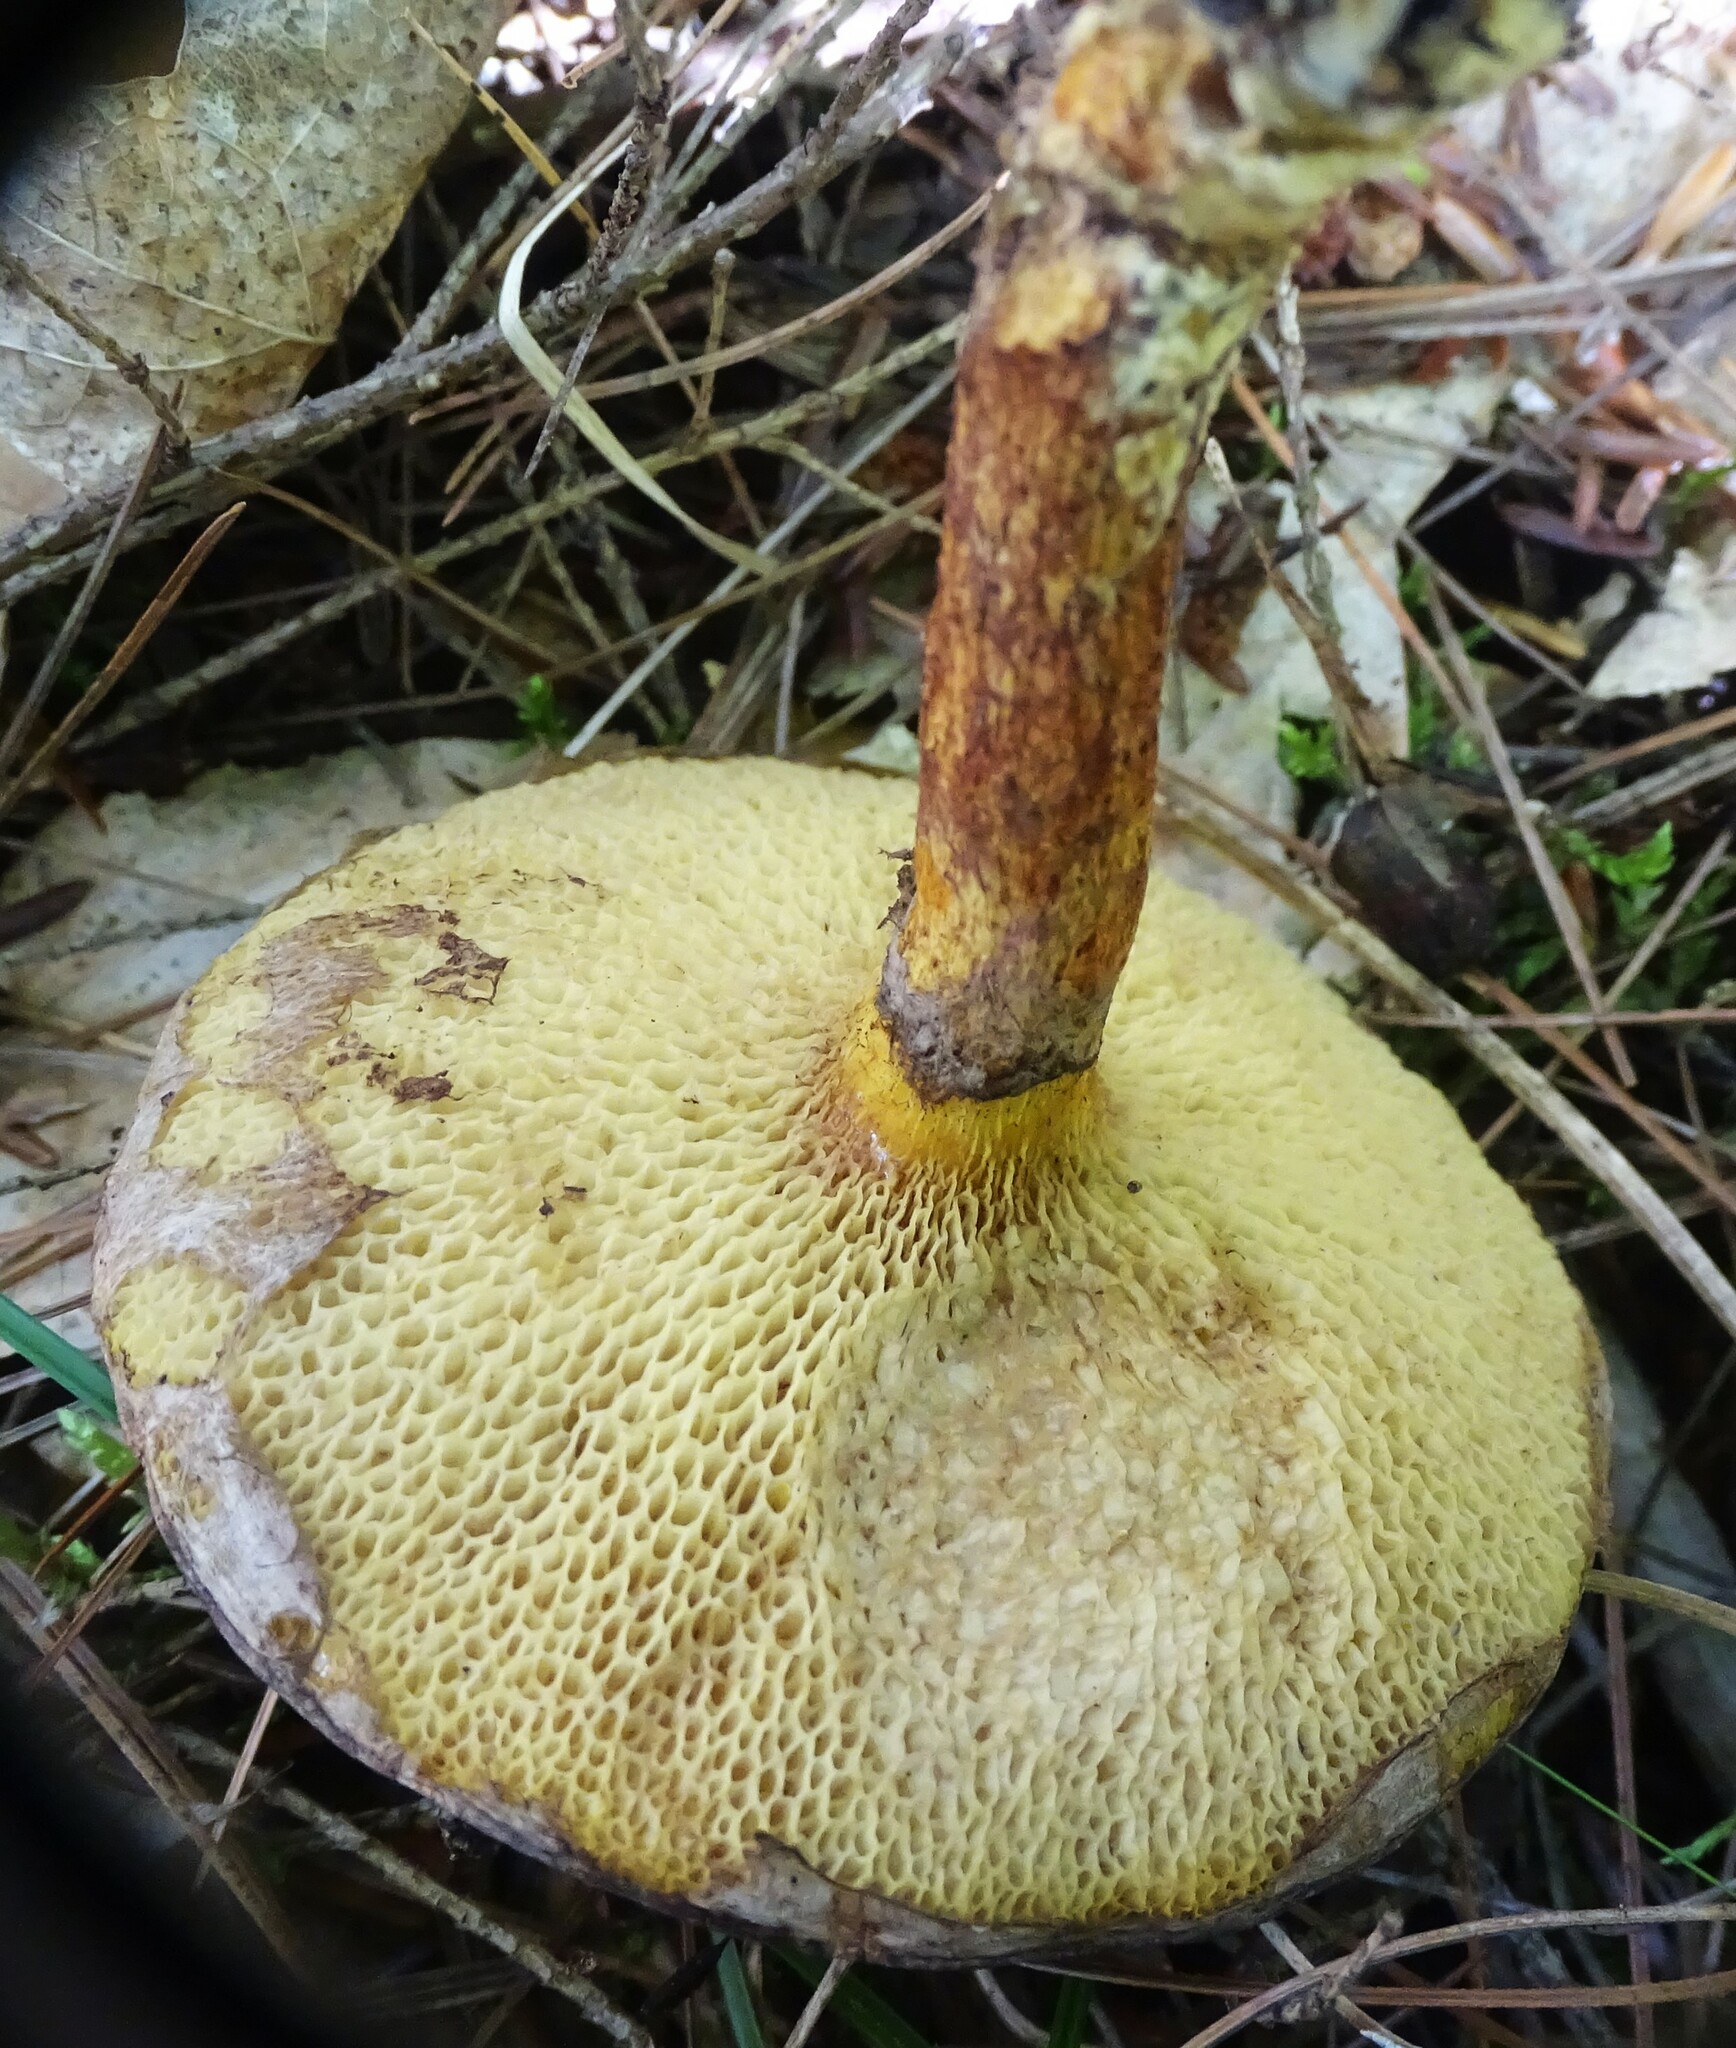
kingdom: Fungi
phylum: Basidiomycota
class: Agaricomycetes
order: Boletales
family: Suillaceae
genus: Suillus
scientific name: Suillus spraguei
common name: Painted suillus
